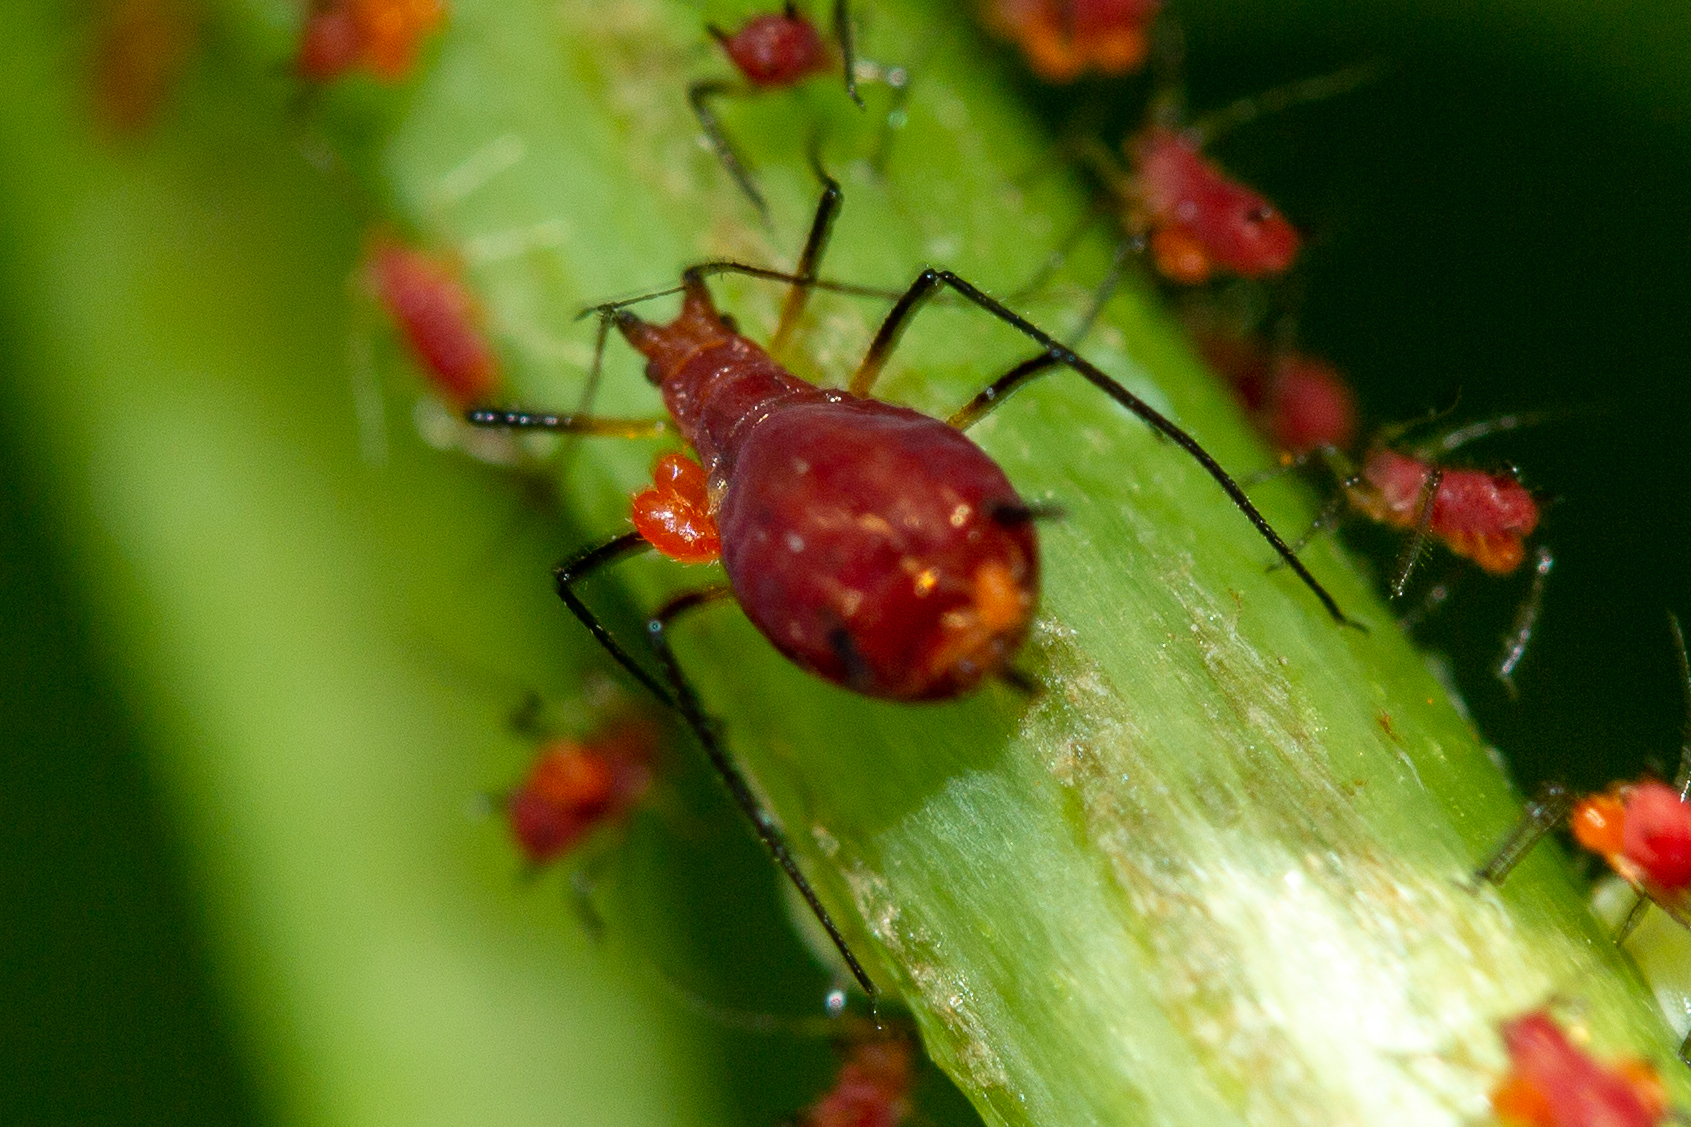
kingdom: Animalia
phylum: Arthropoda
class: Insecta
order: Hemiptera
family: Aphididae
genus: Uroleucon
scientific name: Uroleucon obscuricaudatum
